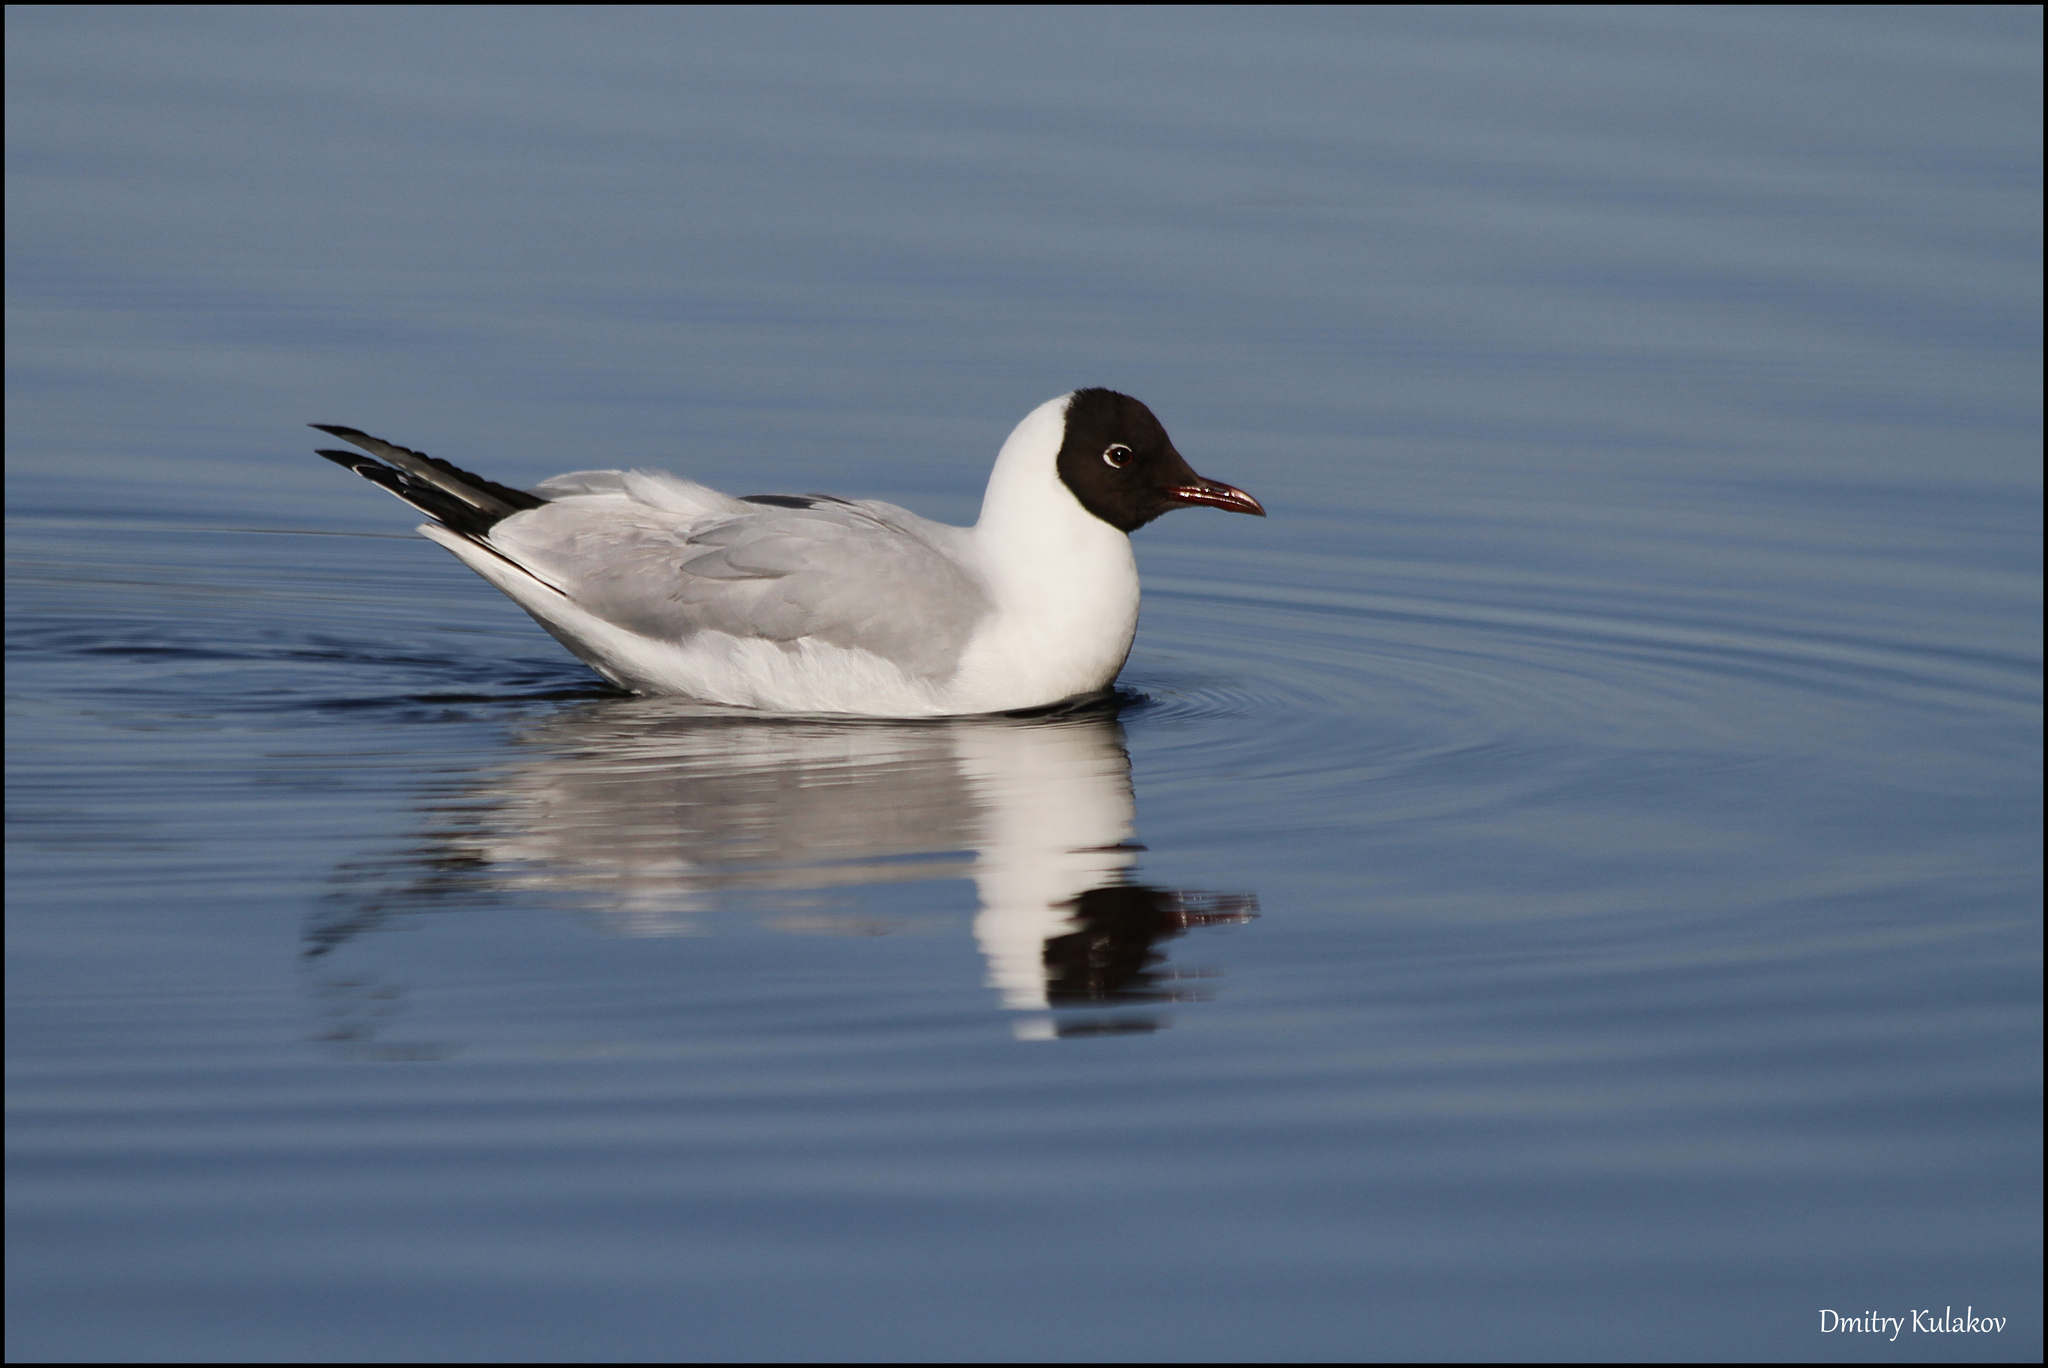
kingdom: Animalia
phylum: Chordata
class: Aves
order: Charadriiformes
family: Laridae
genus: Chroicocephalus
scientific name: Chroicocephalus ridibundus
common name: Black-headed gull
